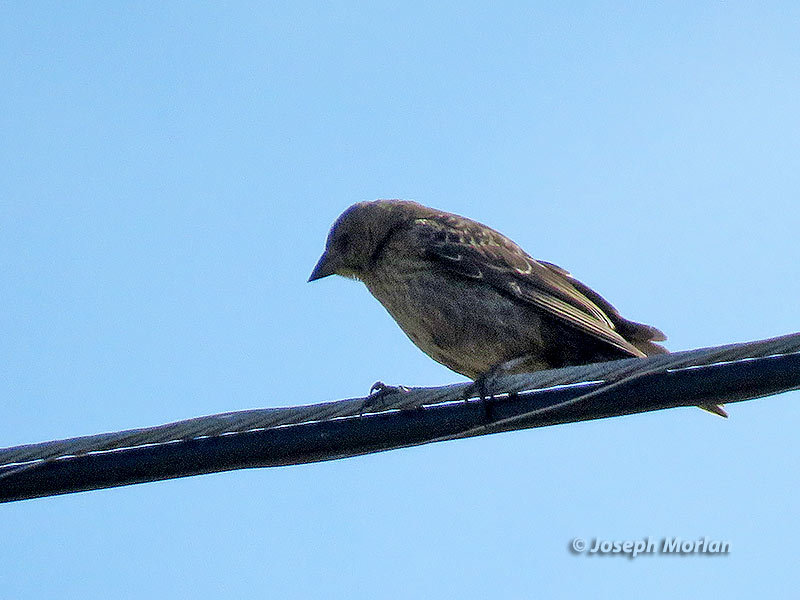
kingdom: Animalia
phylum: Chordata
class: Aves
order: Passeriformes
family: Icteridae
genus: Molothrus
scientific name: Molothrus ater
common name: Brown-headed cowbird
